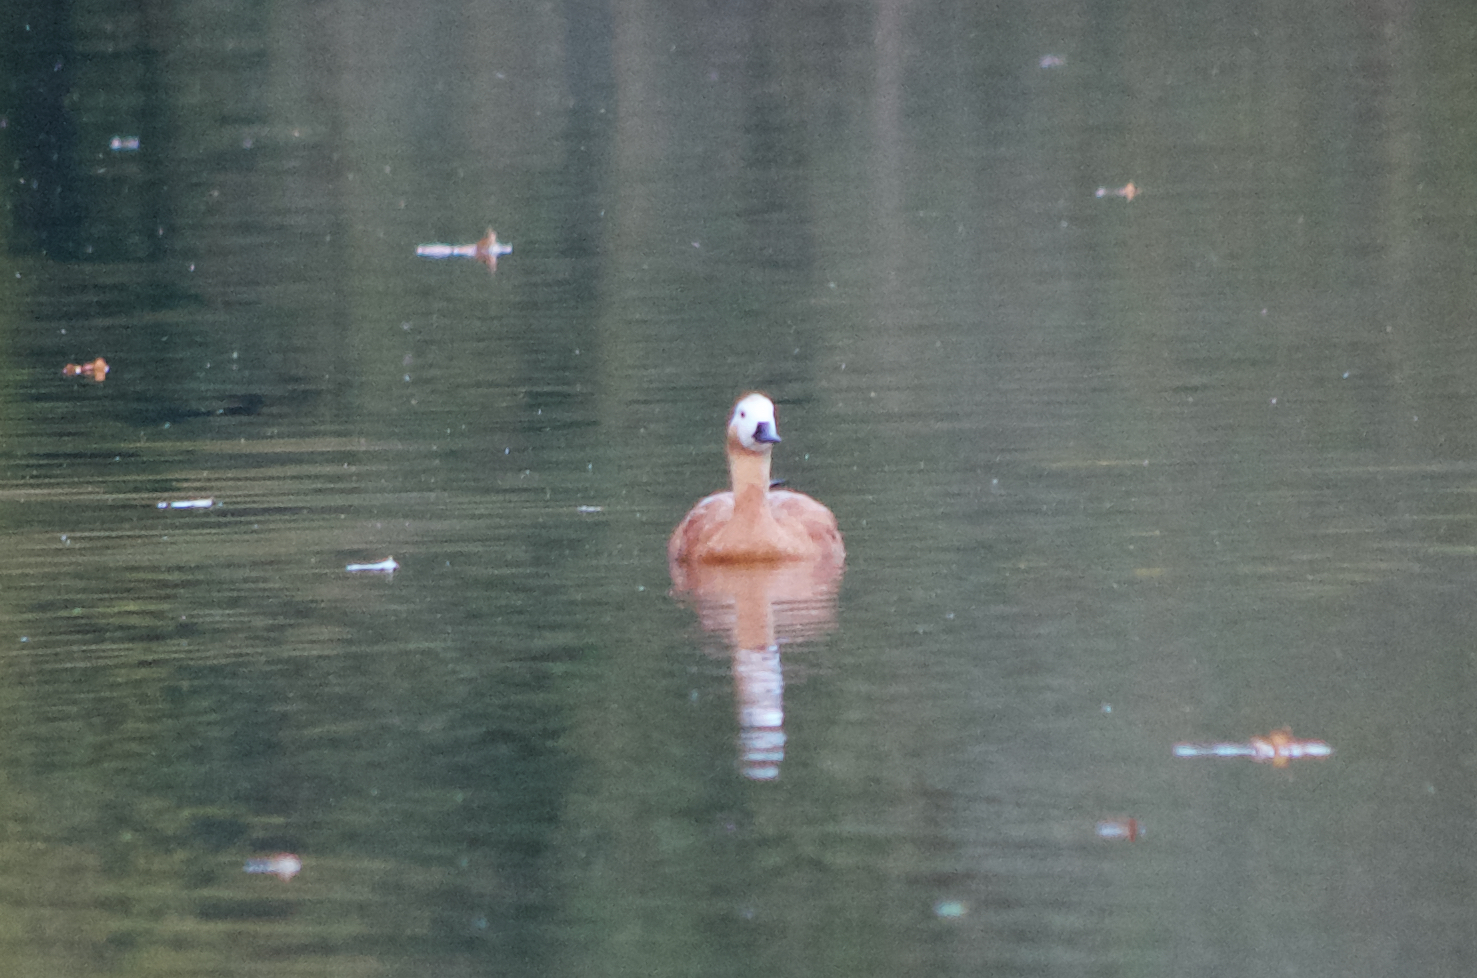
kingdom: Animalia
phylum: Chordata
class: Aves
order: Anseriformes
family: Anatidae
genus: Tadorna
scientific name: Tadorna ferruginea
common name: Ruddy shelduck
